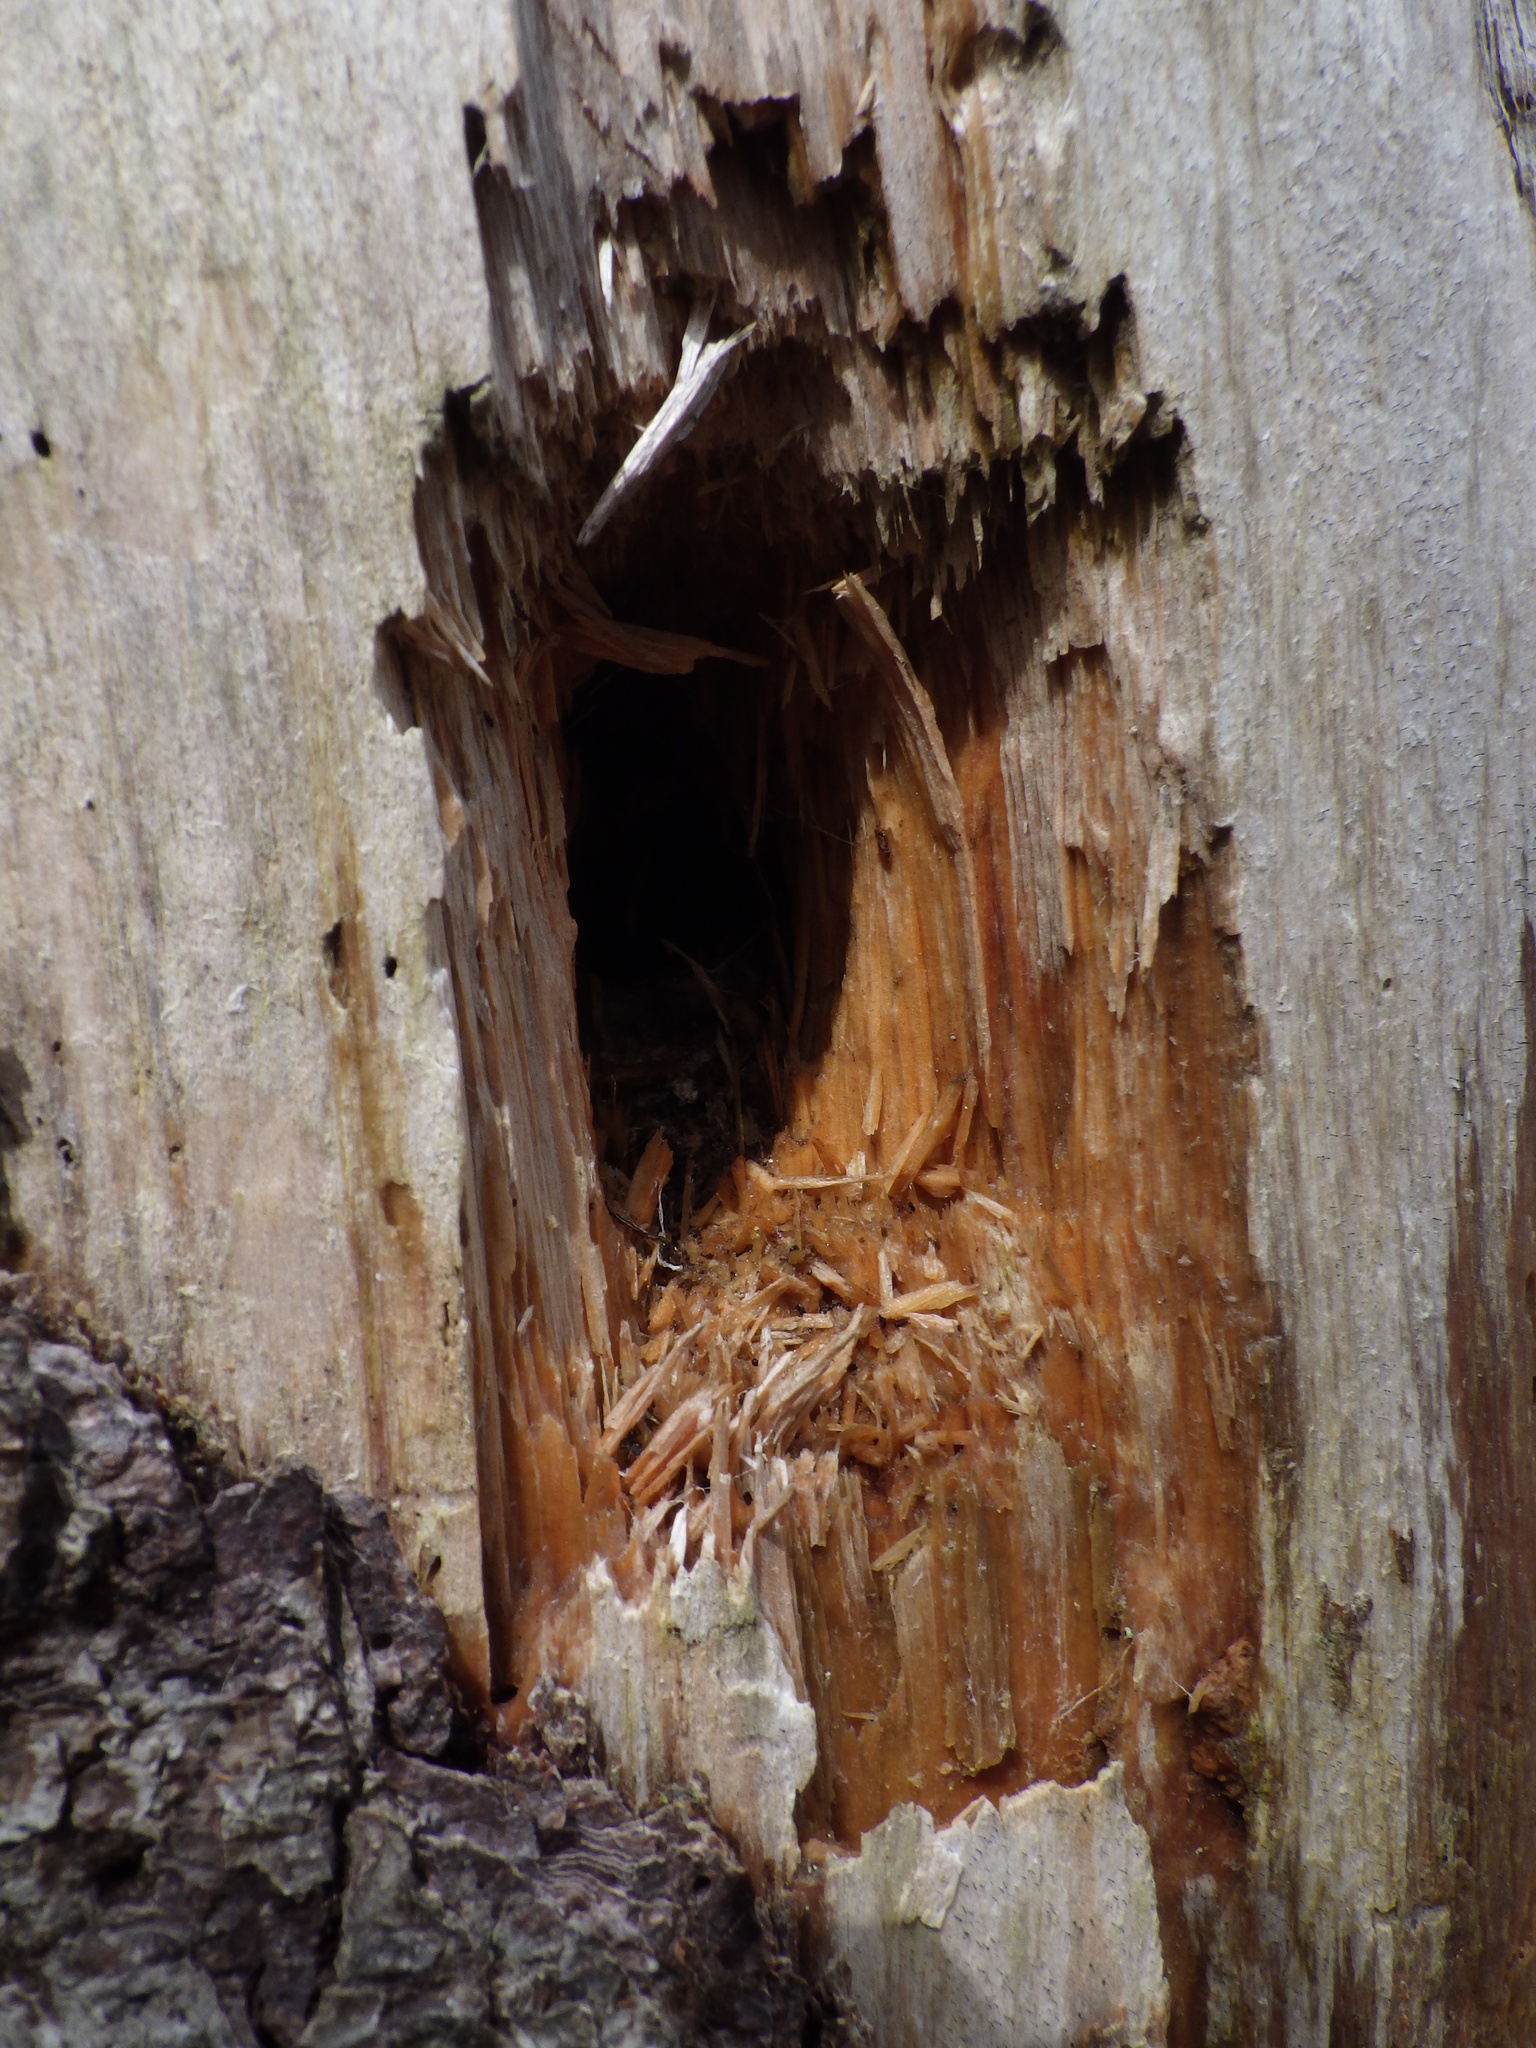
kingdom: Animalia
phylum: Chordata
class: Aves
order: Piciformes
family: Picidae
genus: Dryocopus
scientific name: Dryocopus pileatus
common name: Pileated woodpecker
